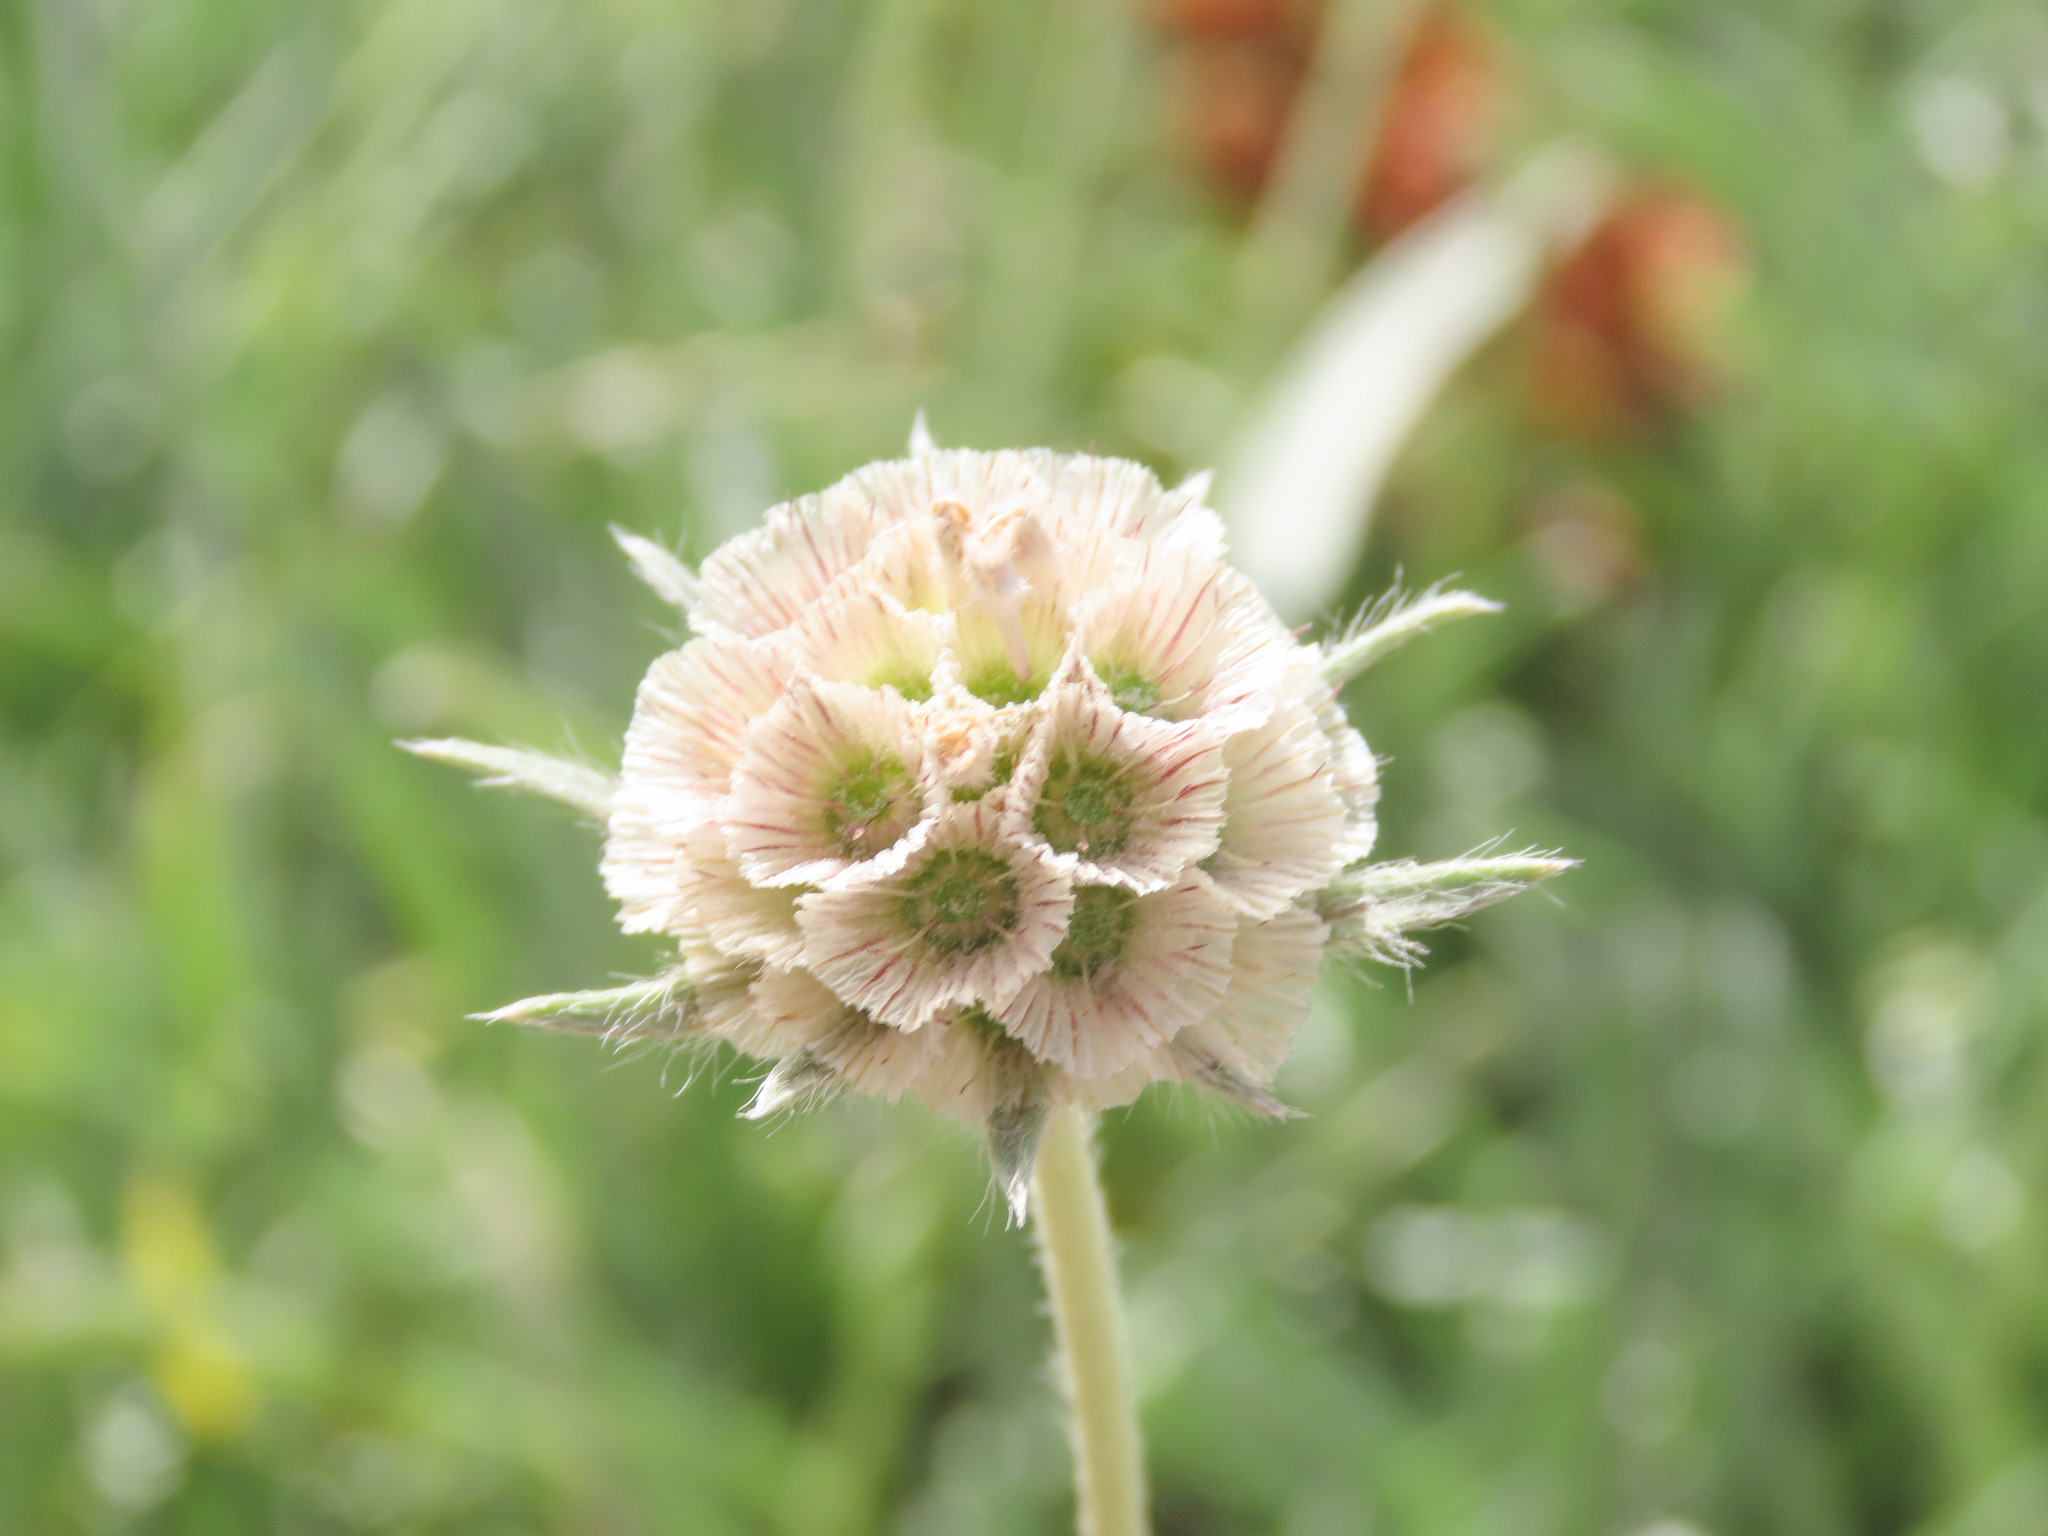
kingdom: Plantae
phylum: Tracheophyta
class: Magnoliopsida
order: Dipsacales
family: Caprifoliaceae
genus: Lomelosia
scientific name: Lomelosia graminifolia
